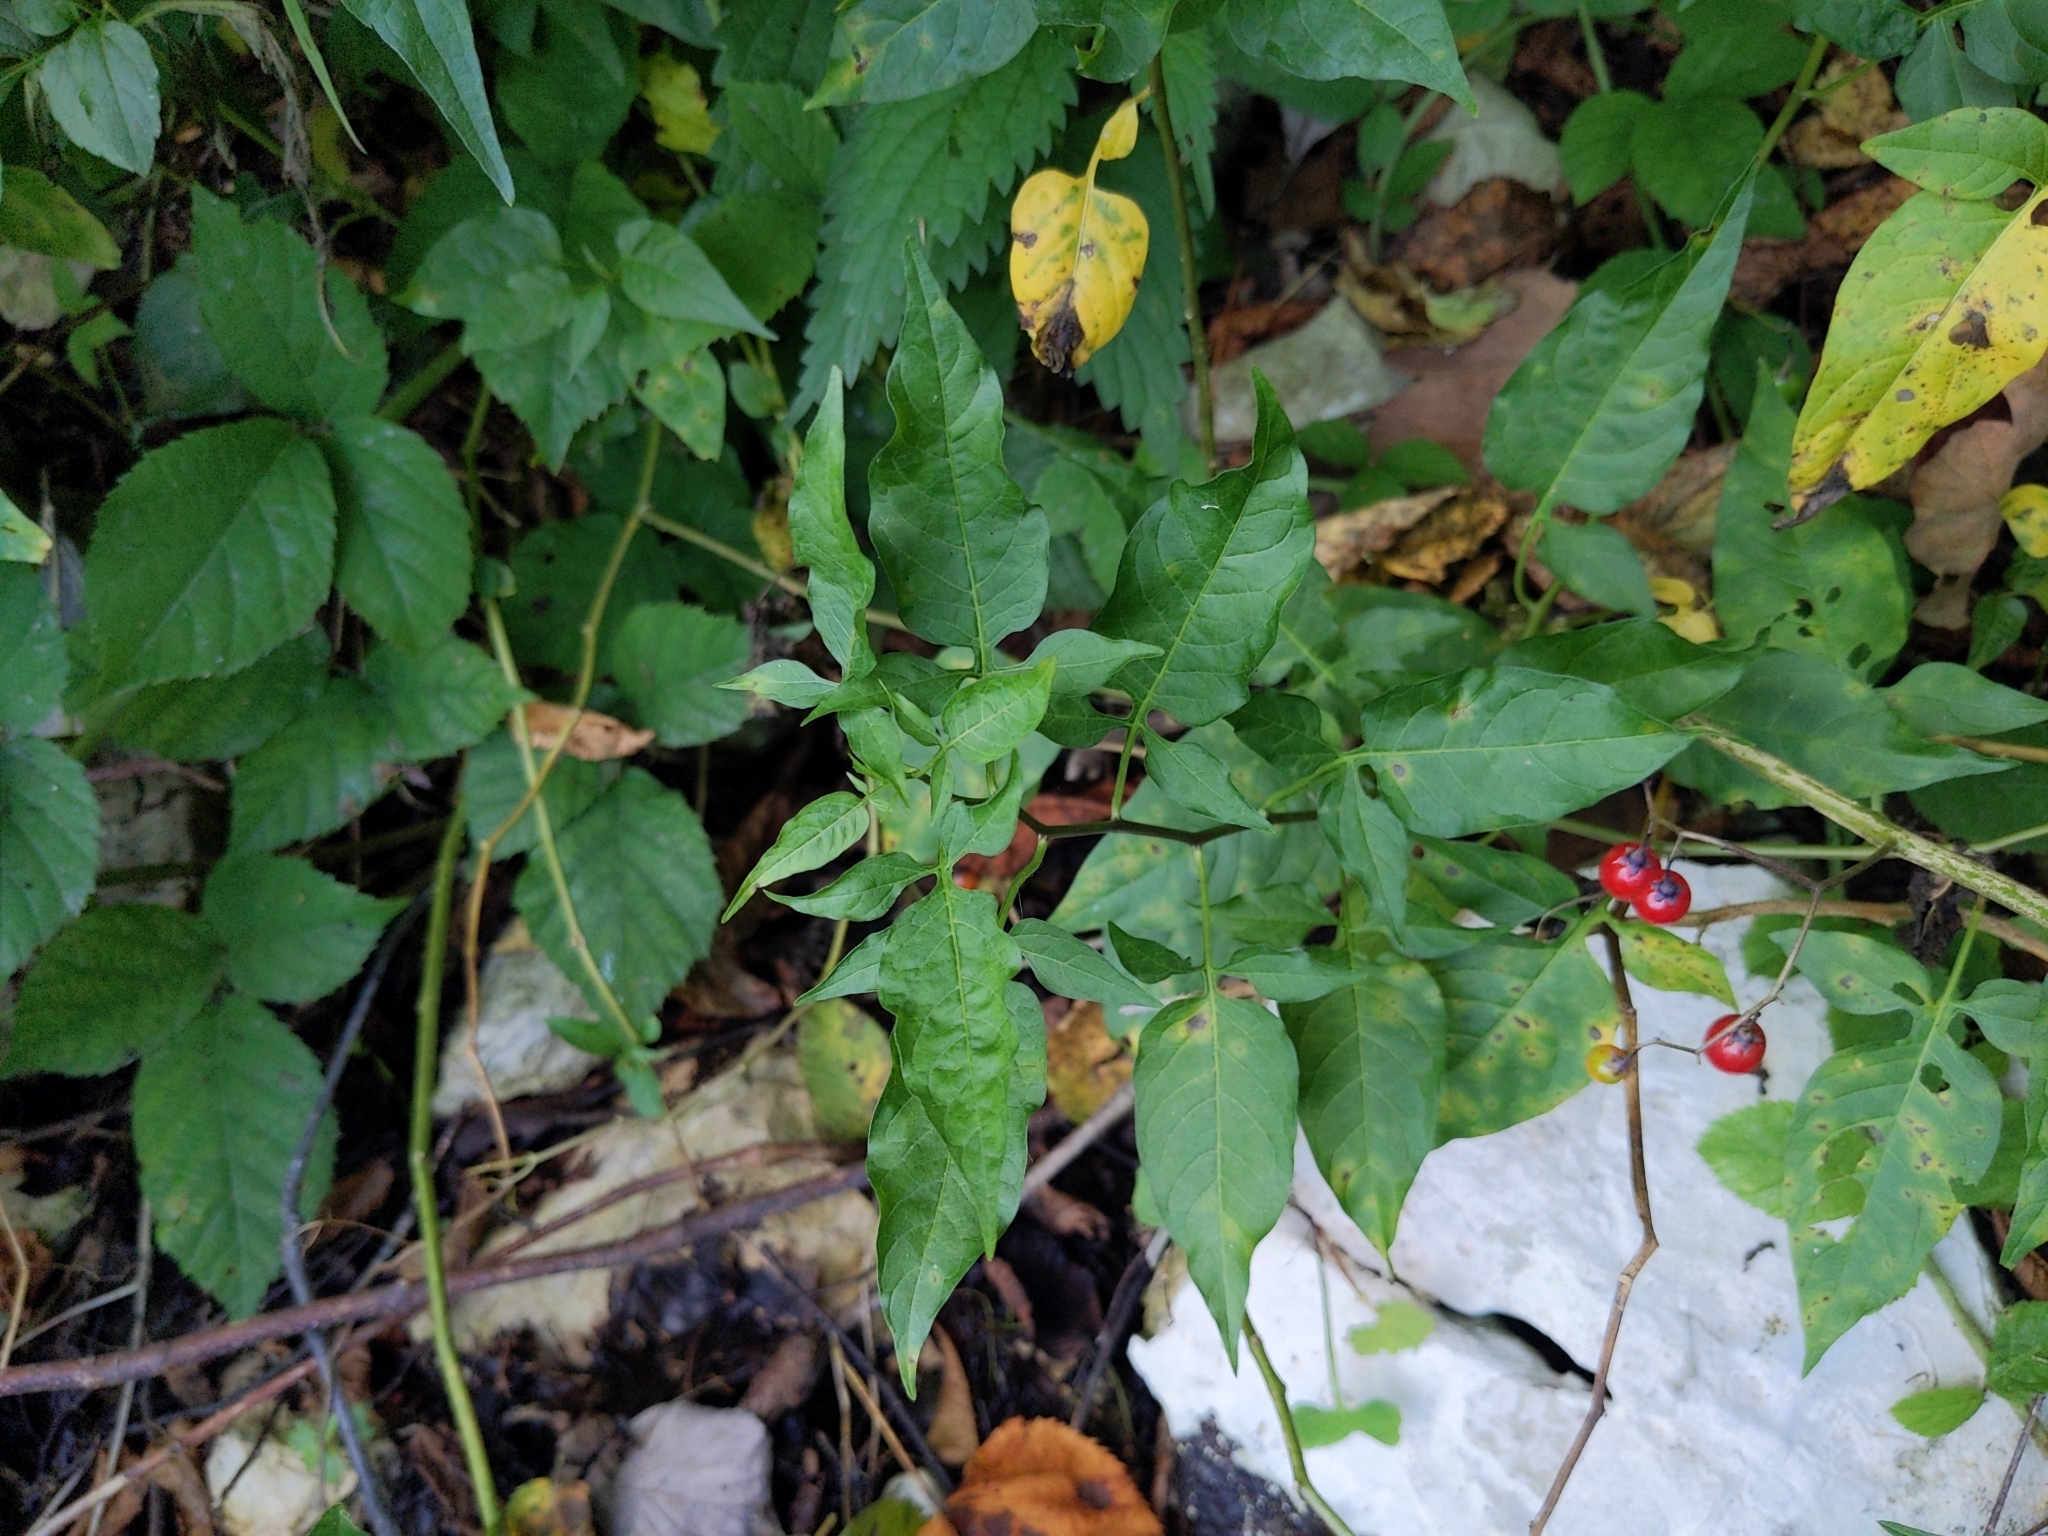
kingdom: Plantae
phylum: Tracheophyta
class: Magnoliopsida
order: Solanales
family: Solanaceae
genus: Solanum
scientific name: Solanum dulcamara
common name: Climbing nightshade
